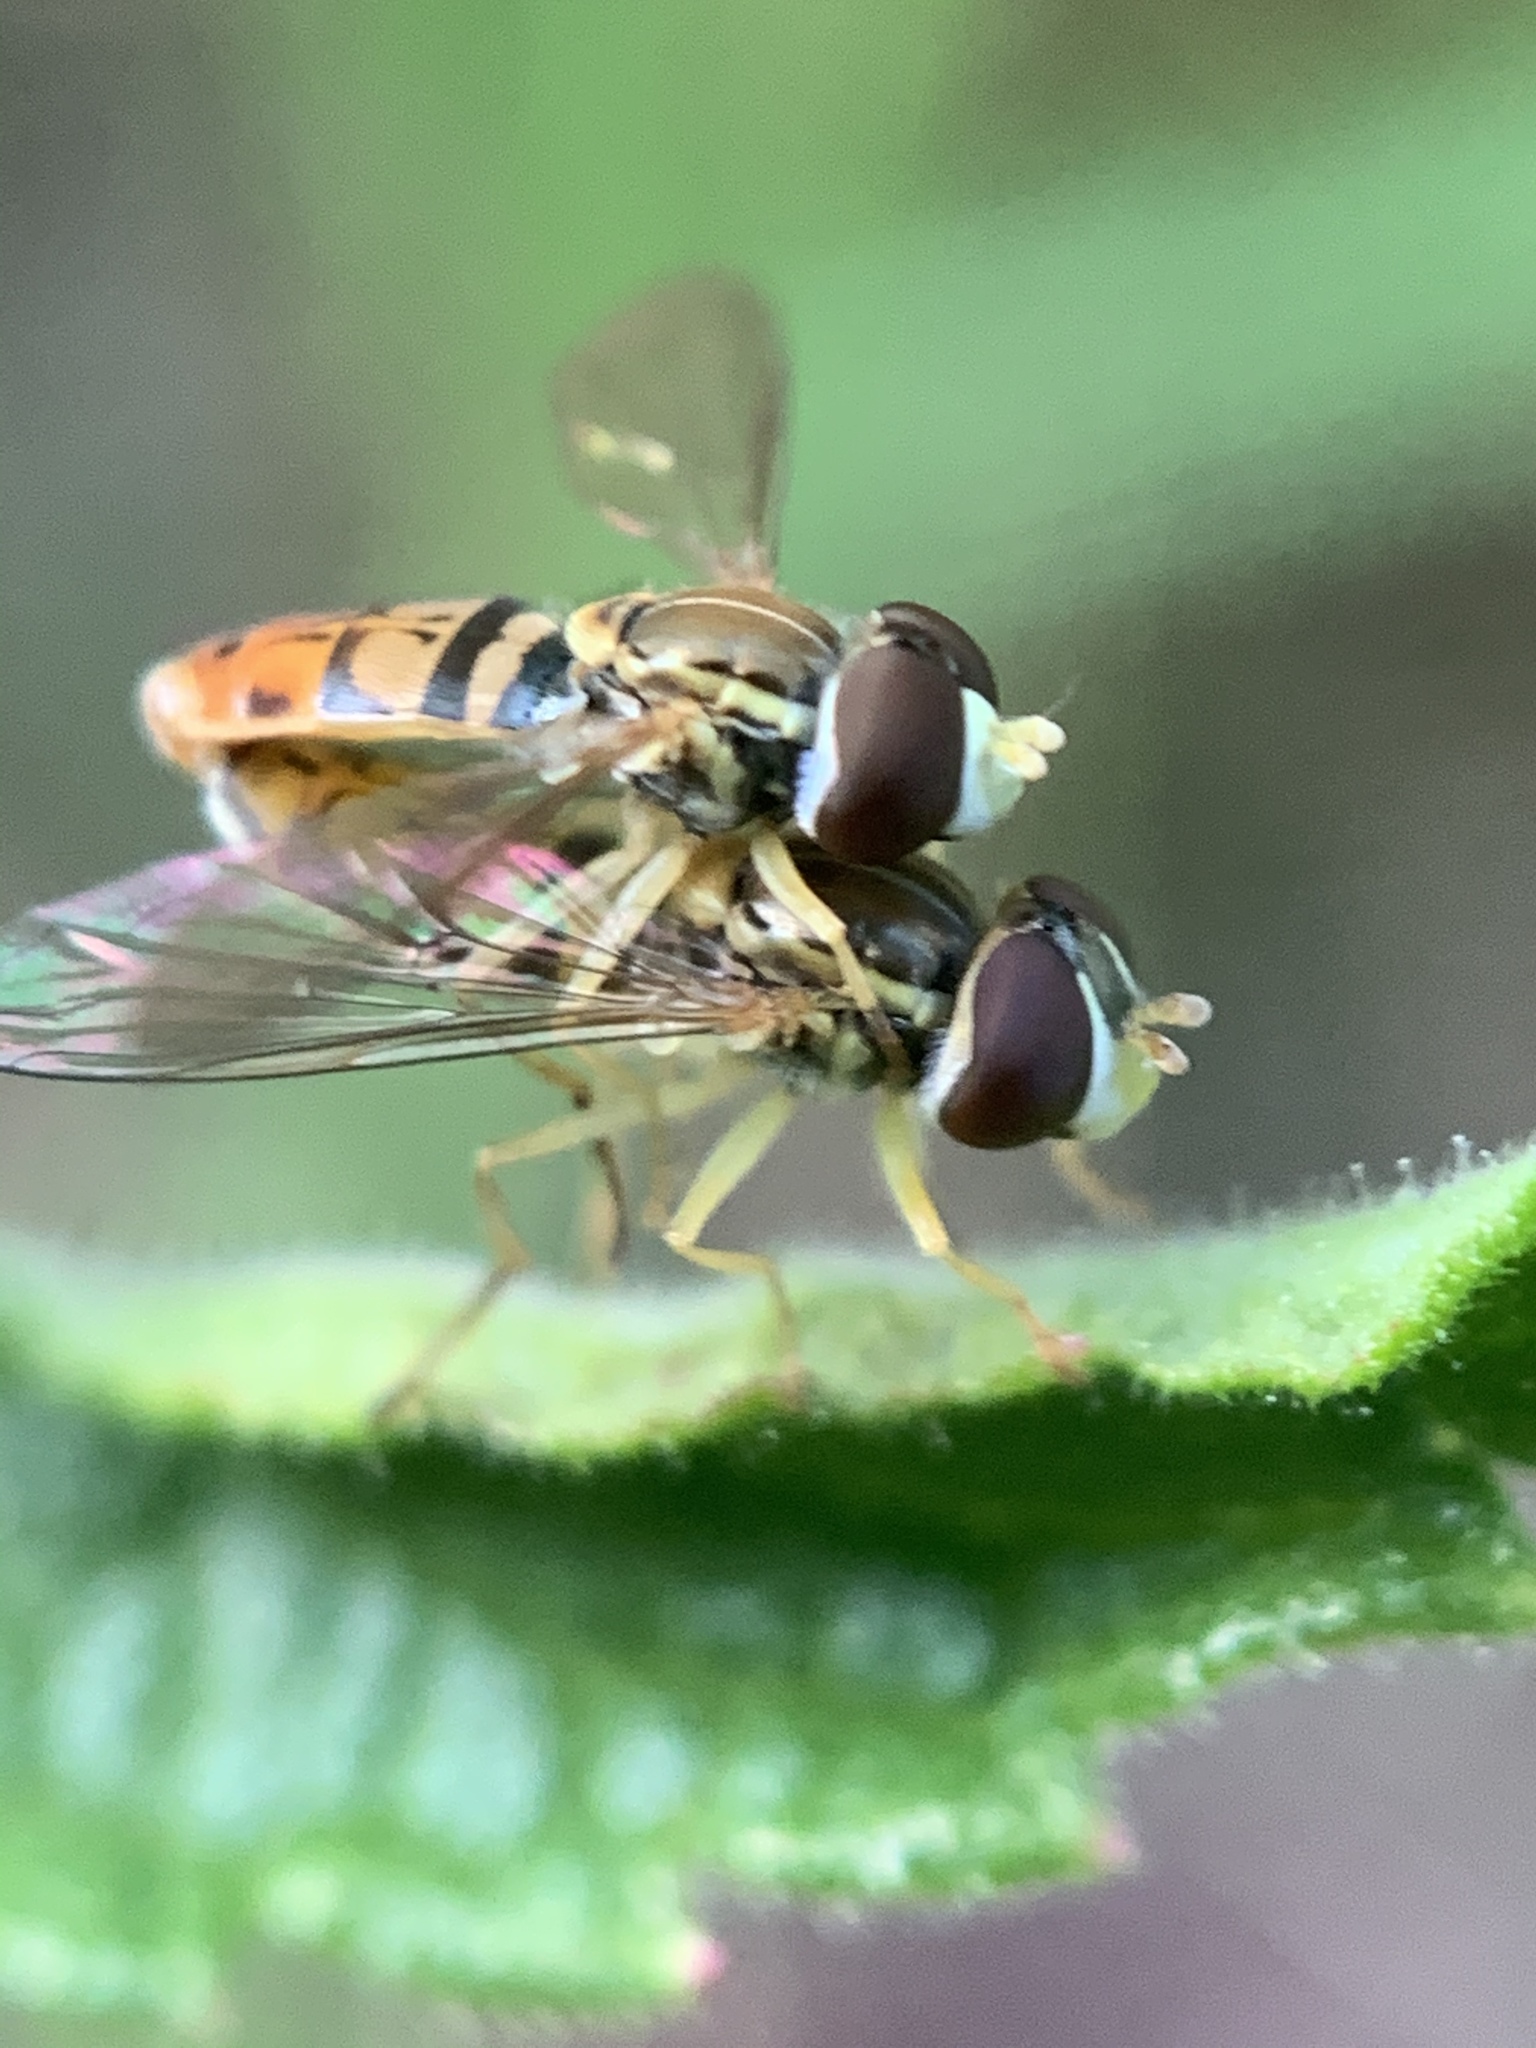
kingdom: Animalia
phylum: Arthropoda
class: Insecta
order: Diptera
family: Syrphidae
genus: Toxomerus
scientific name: Toxomerus marginatus
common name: Syrphid fly
